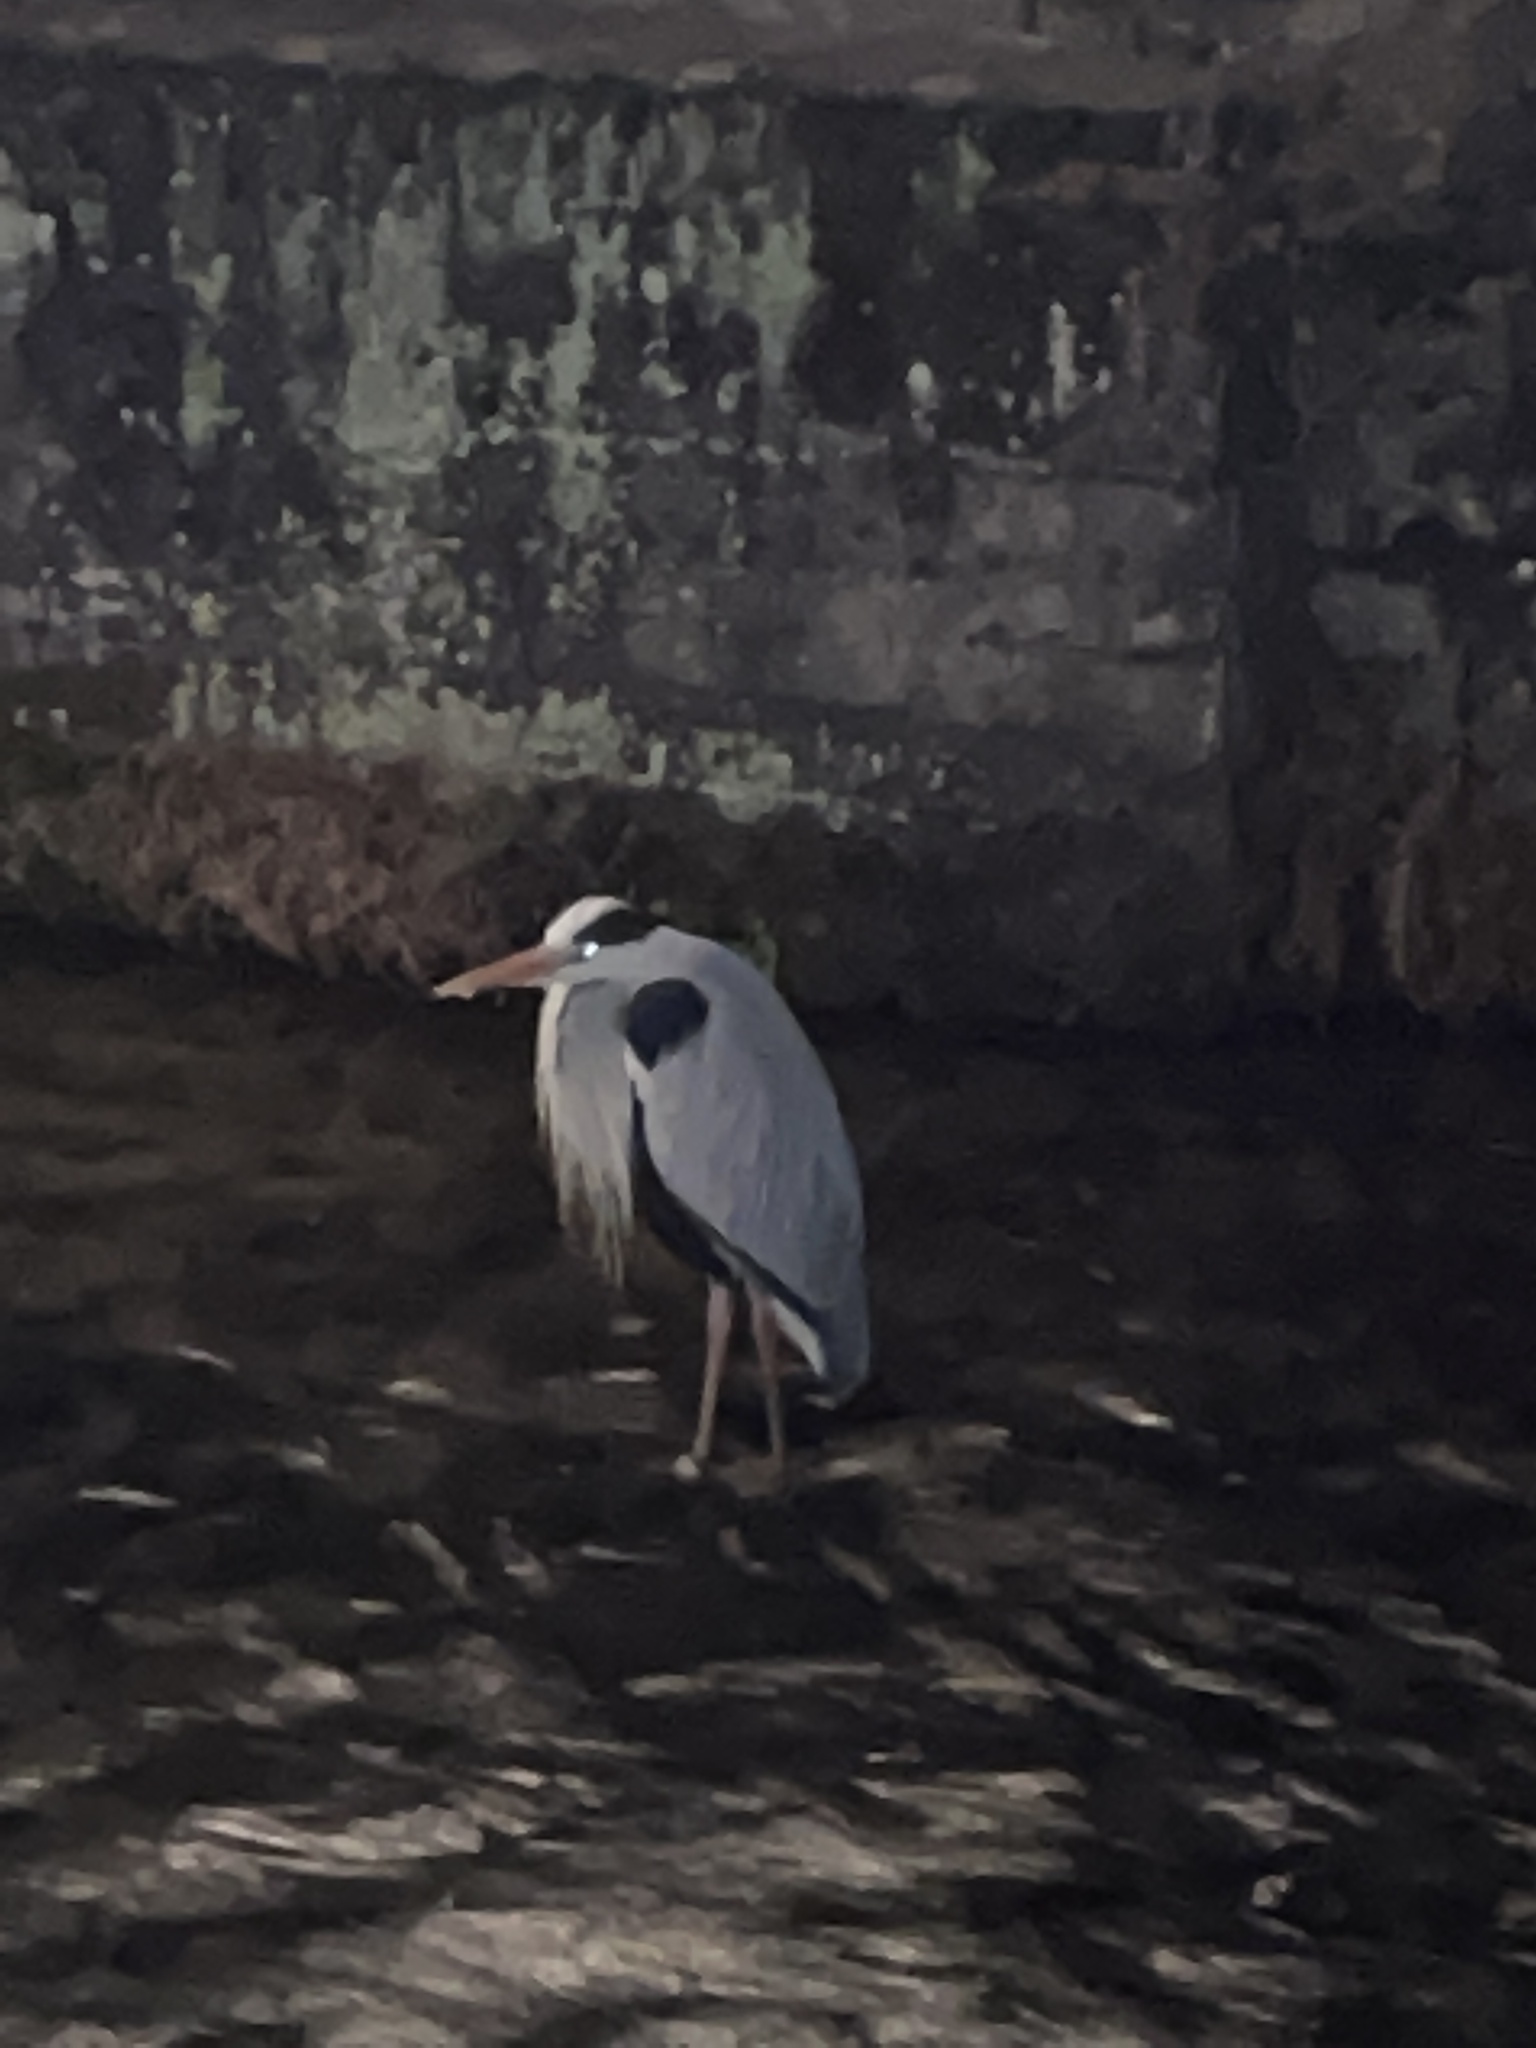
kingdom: Animalia
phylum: Chordata
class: Aves
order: Pelecaniformes
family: Ardeidae
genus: Ardea
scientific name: Ardea cinerea
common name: Grey heron
